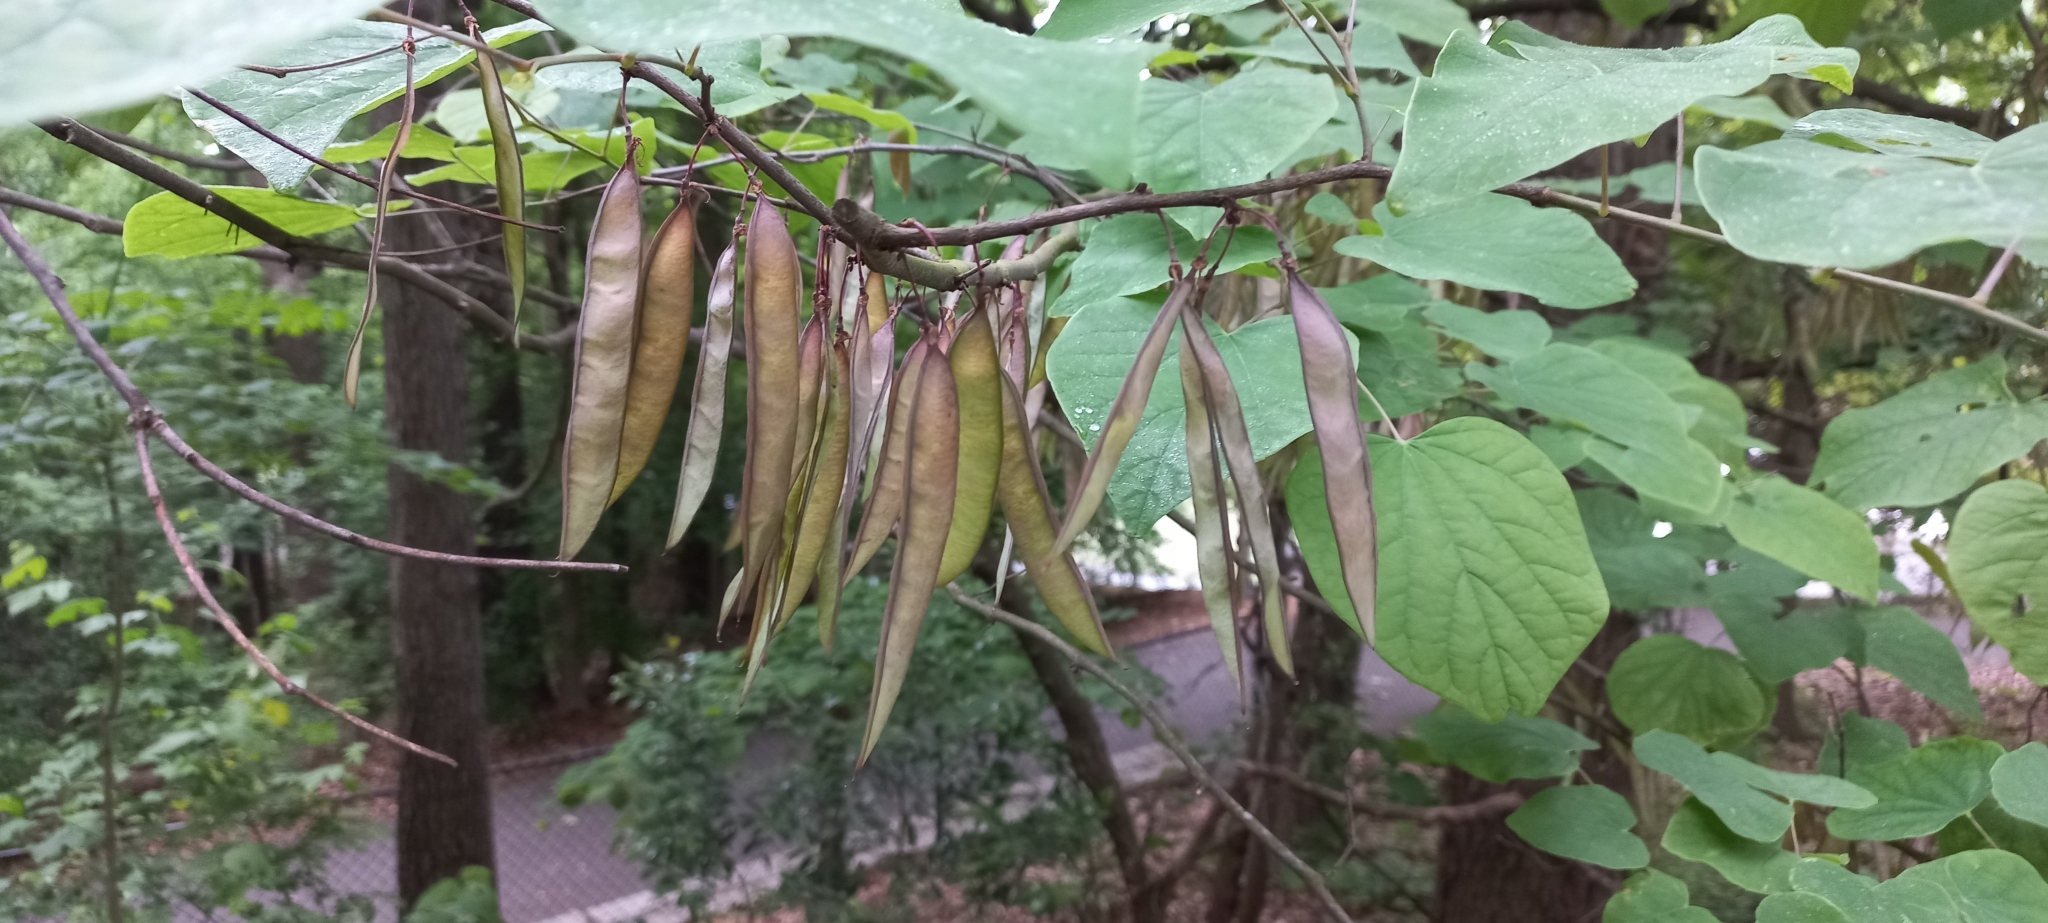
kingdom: Plantae
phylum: Tracheophyta
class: Magnoliopsida
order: Fabales
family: Fabaceae
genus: Cercis
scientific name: Cercis canadensis
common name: Eastern redbud
